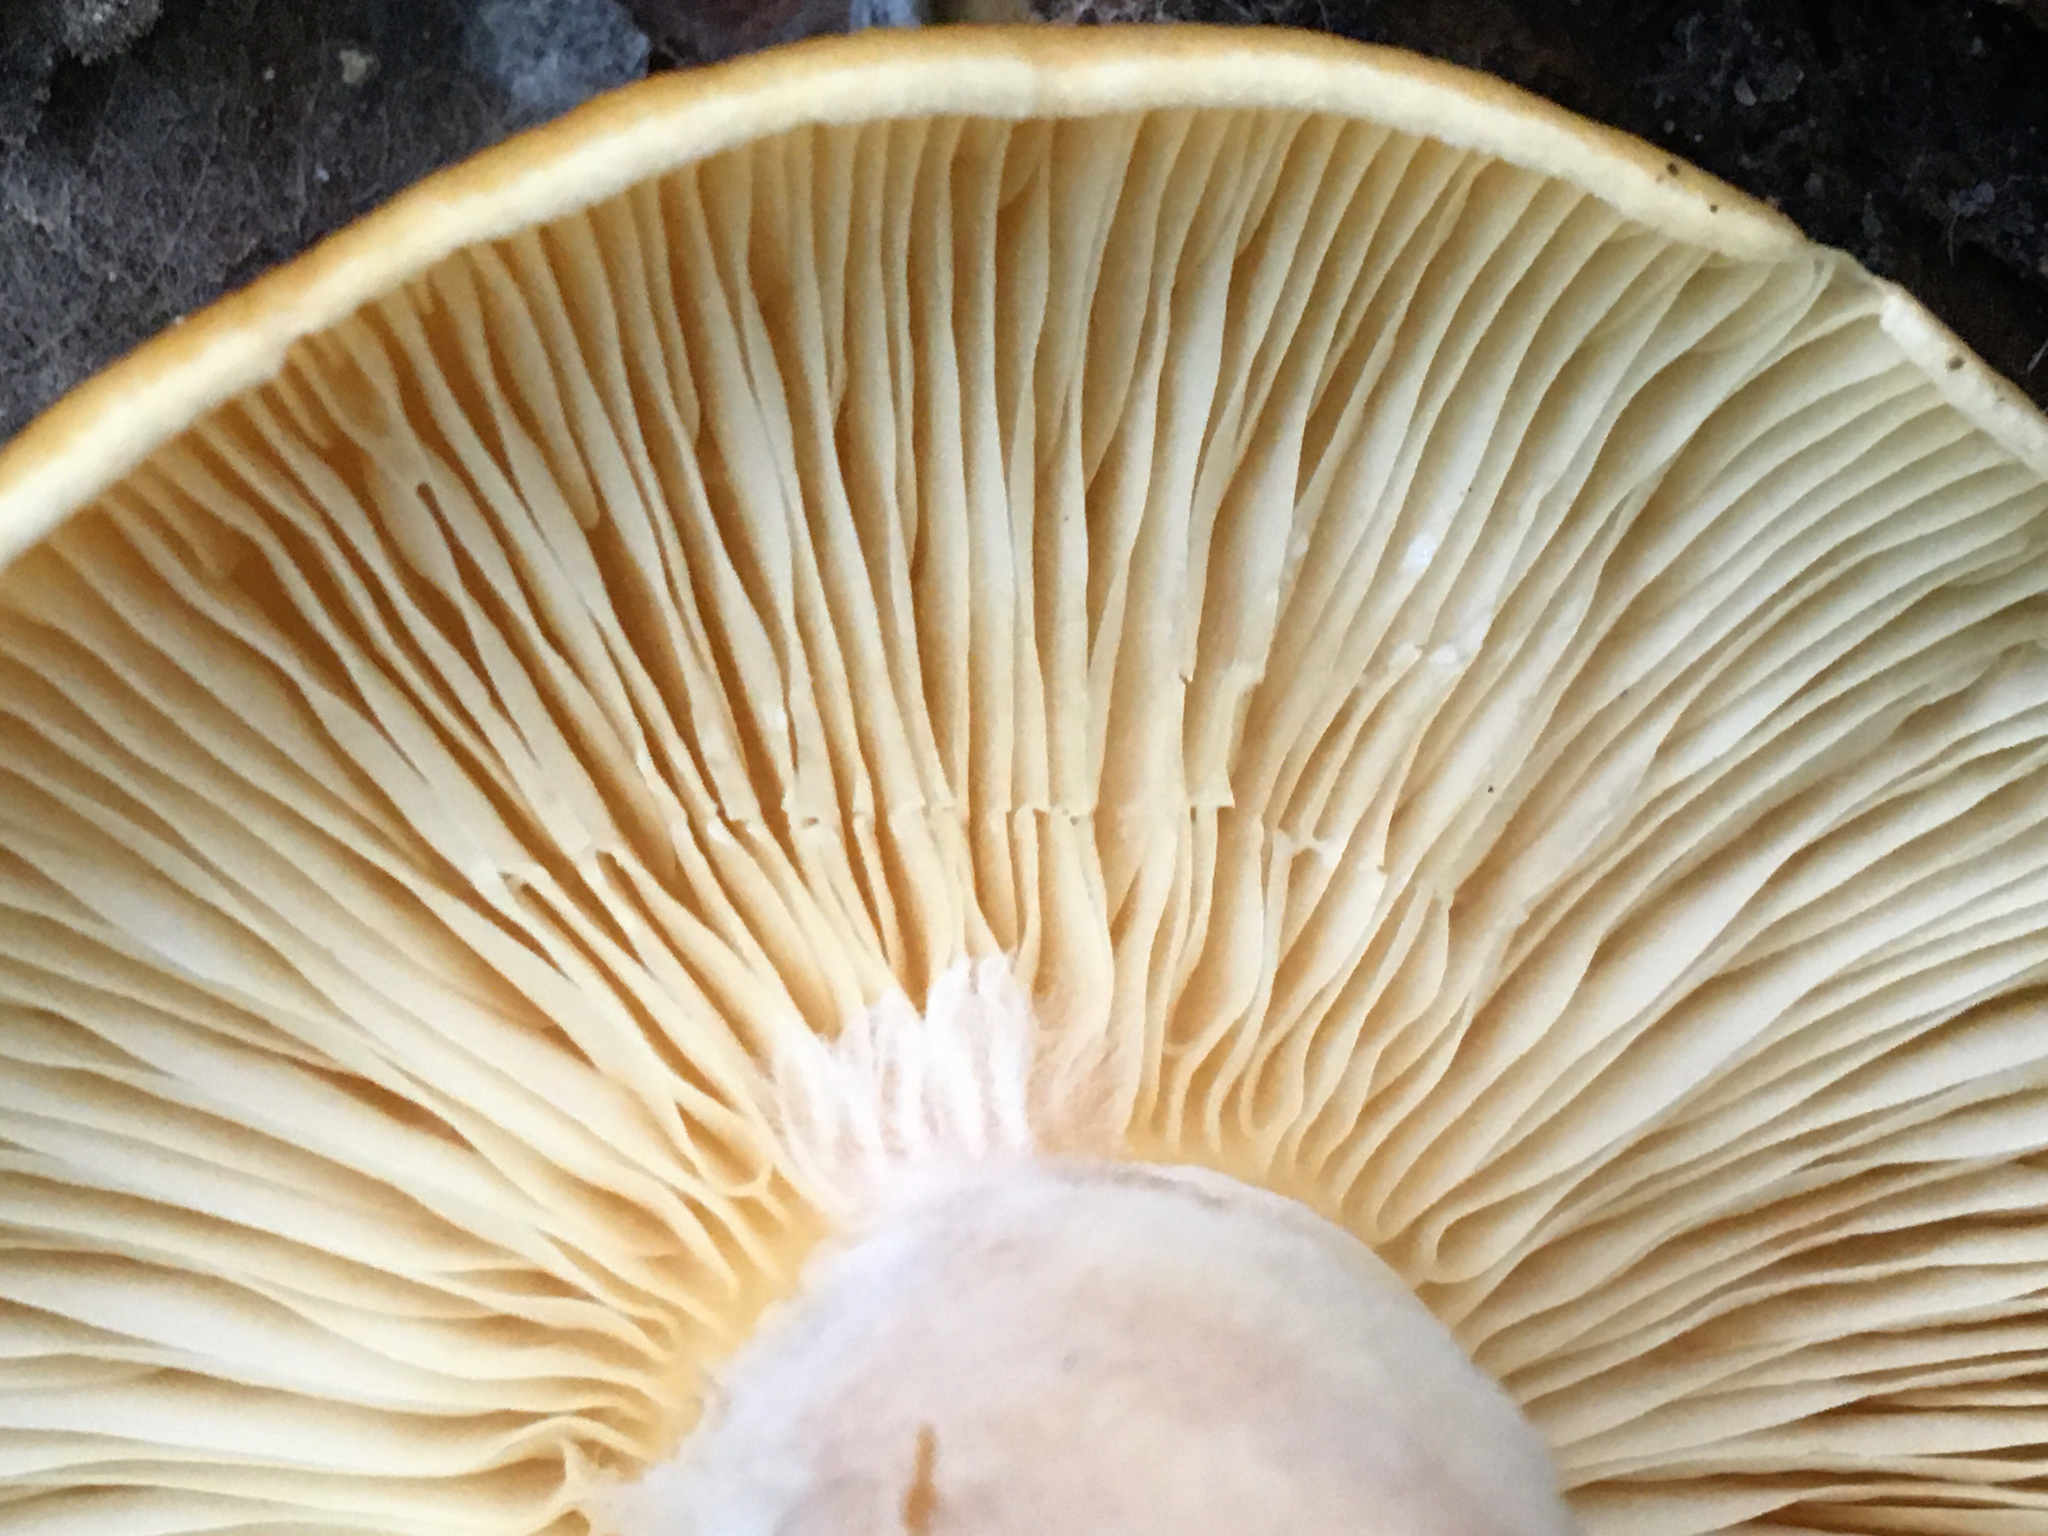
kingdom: Fungi
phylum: Basidiomycota
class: Agaricomycetes
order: Russulales
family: Russulaceae
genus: Lactarius
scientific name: Lactarius croceus
